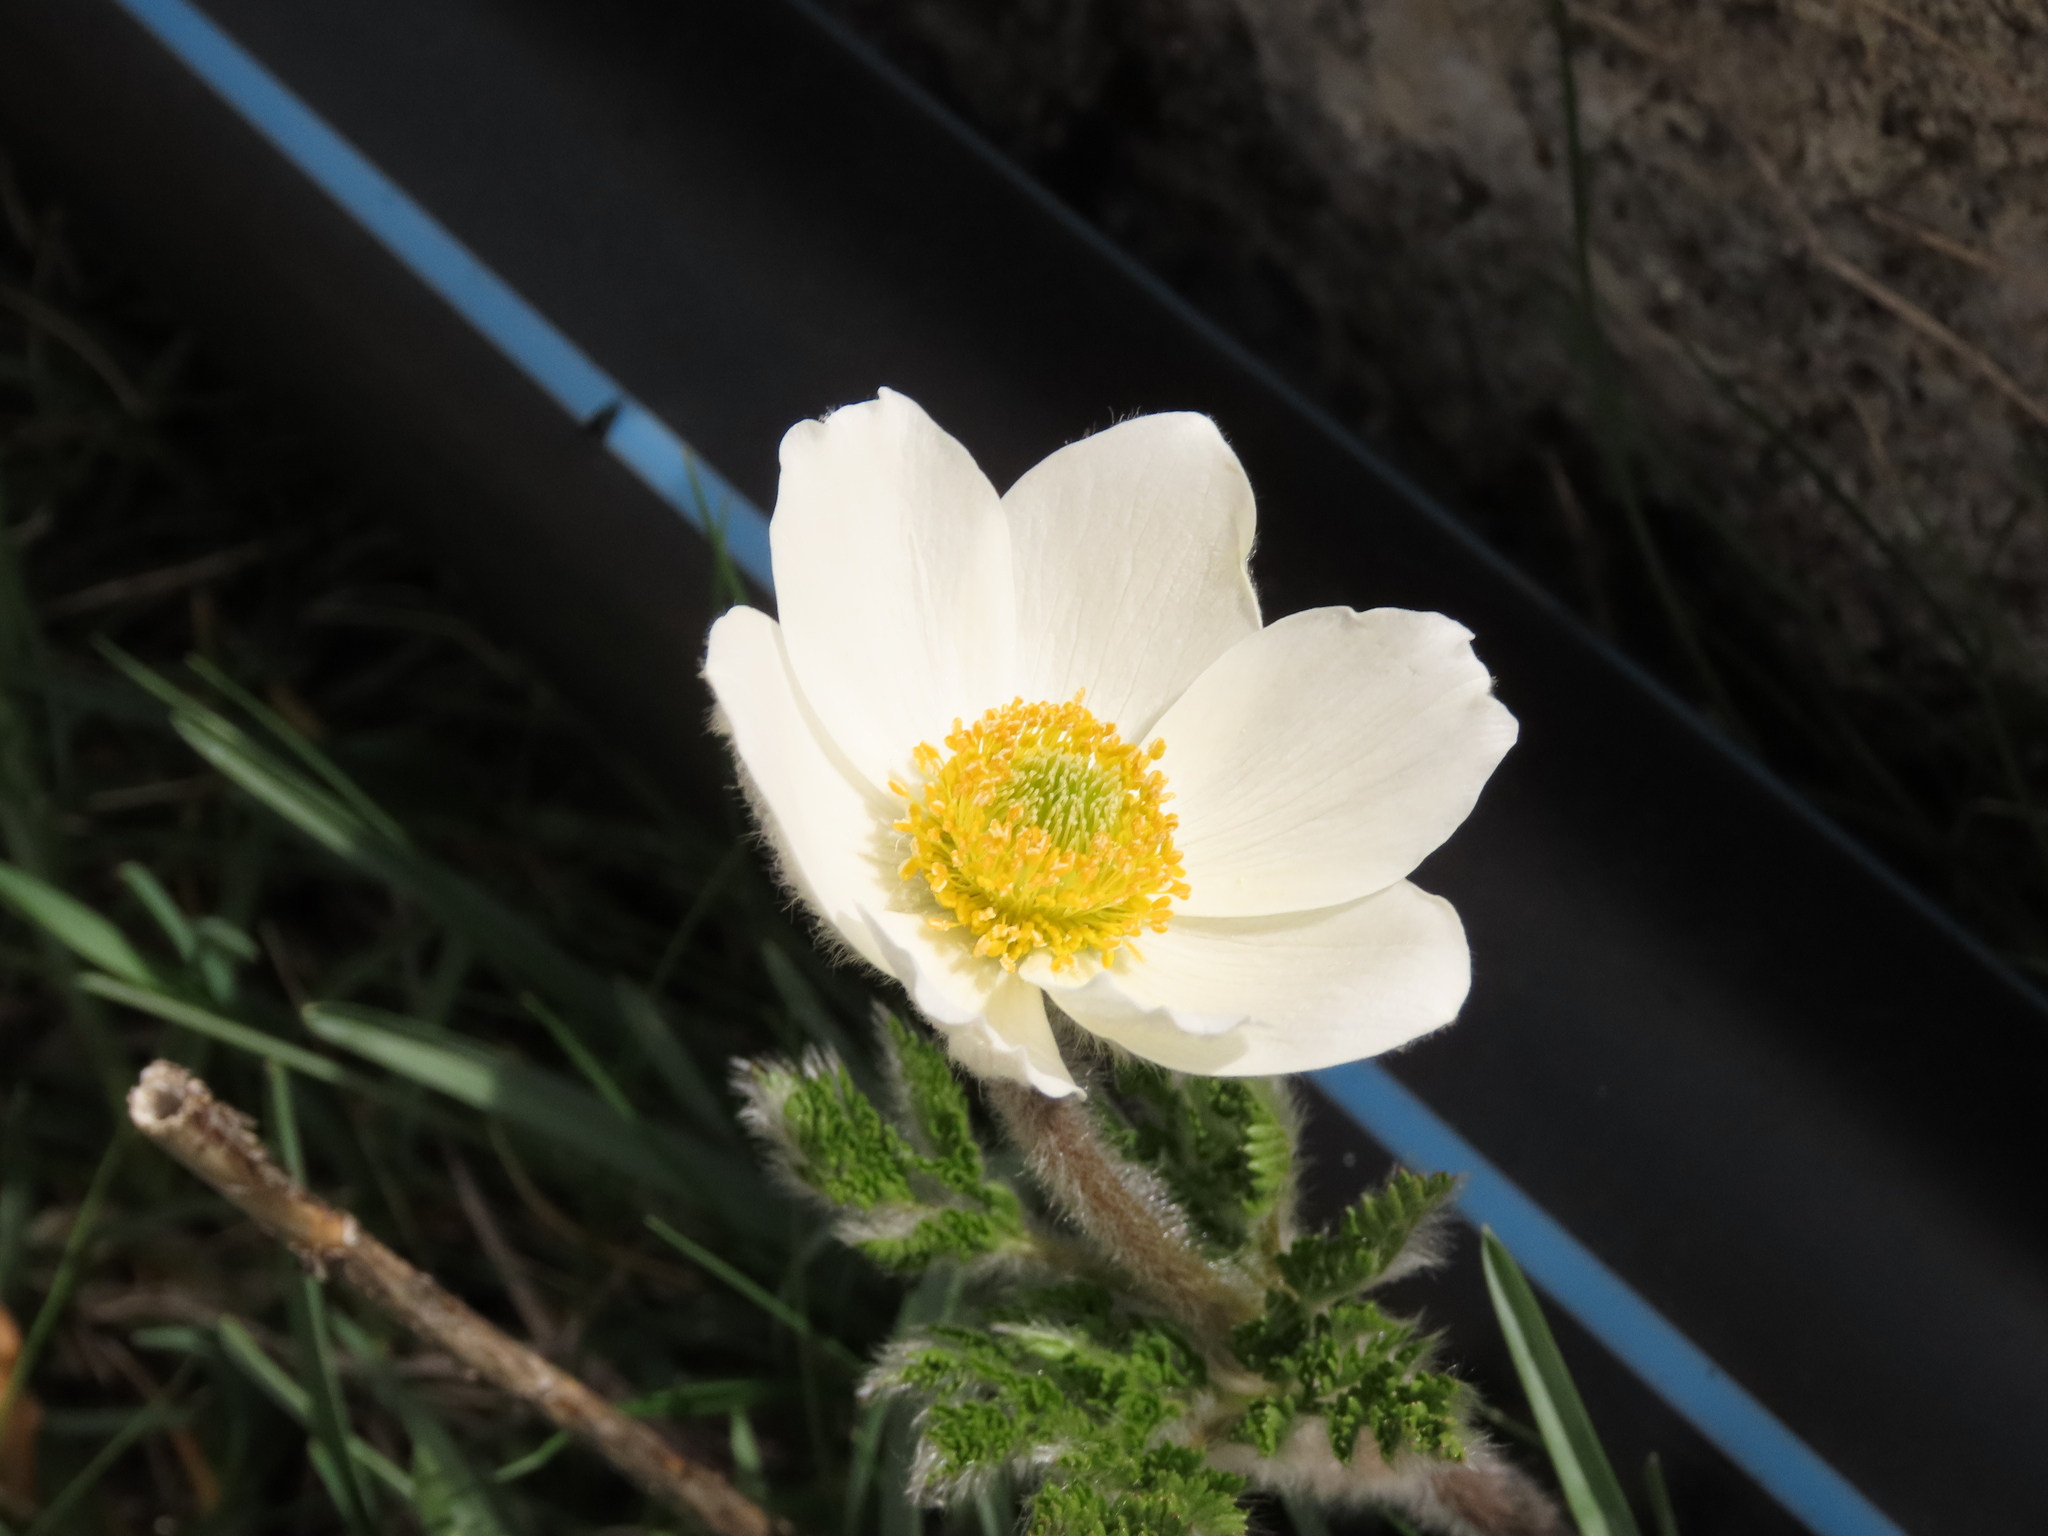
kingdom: Plantae
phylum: Tracheophyta
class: Magnoliopsida
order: Ranunculales
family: Ranunculaceae
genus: Pulsatilla
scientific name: Pulsatilla alpina
